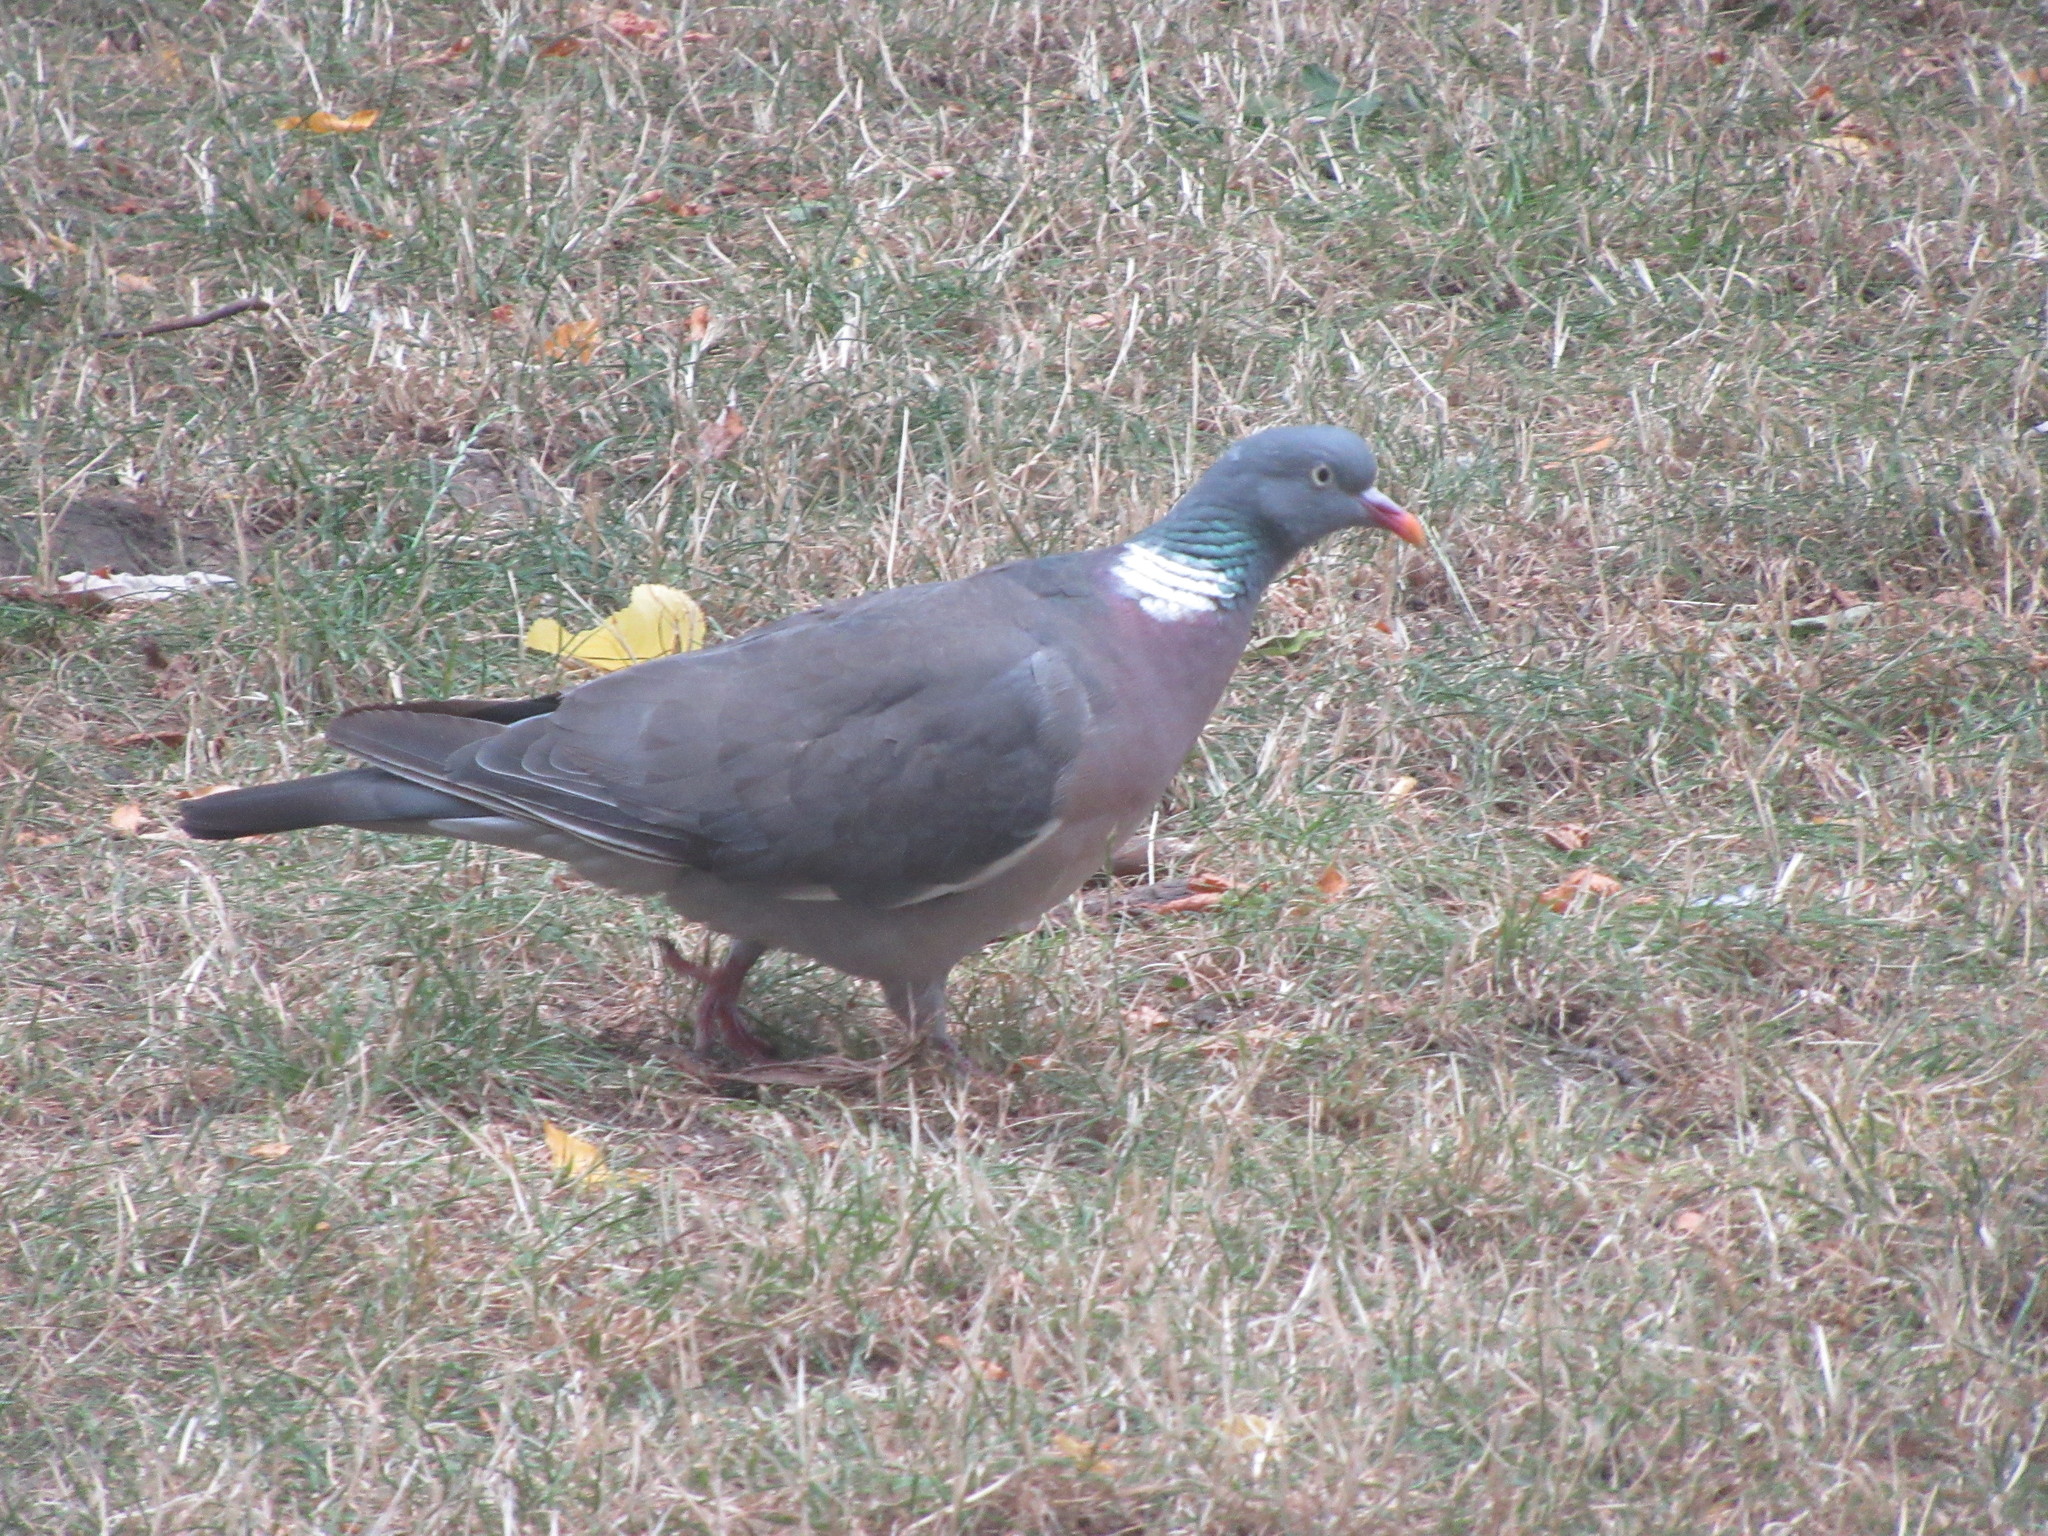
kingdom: Animalia
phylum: Chordata
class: Aves
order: Columbiformes
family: Columbidae
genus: Columba
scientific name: Columba palumbus
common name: Common wood pigeon
